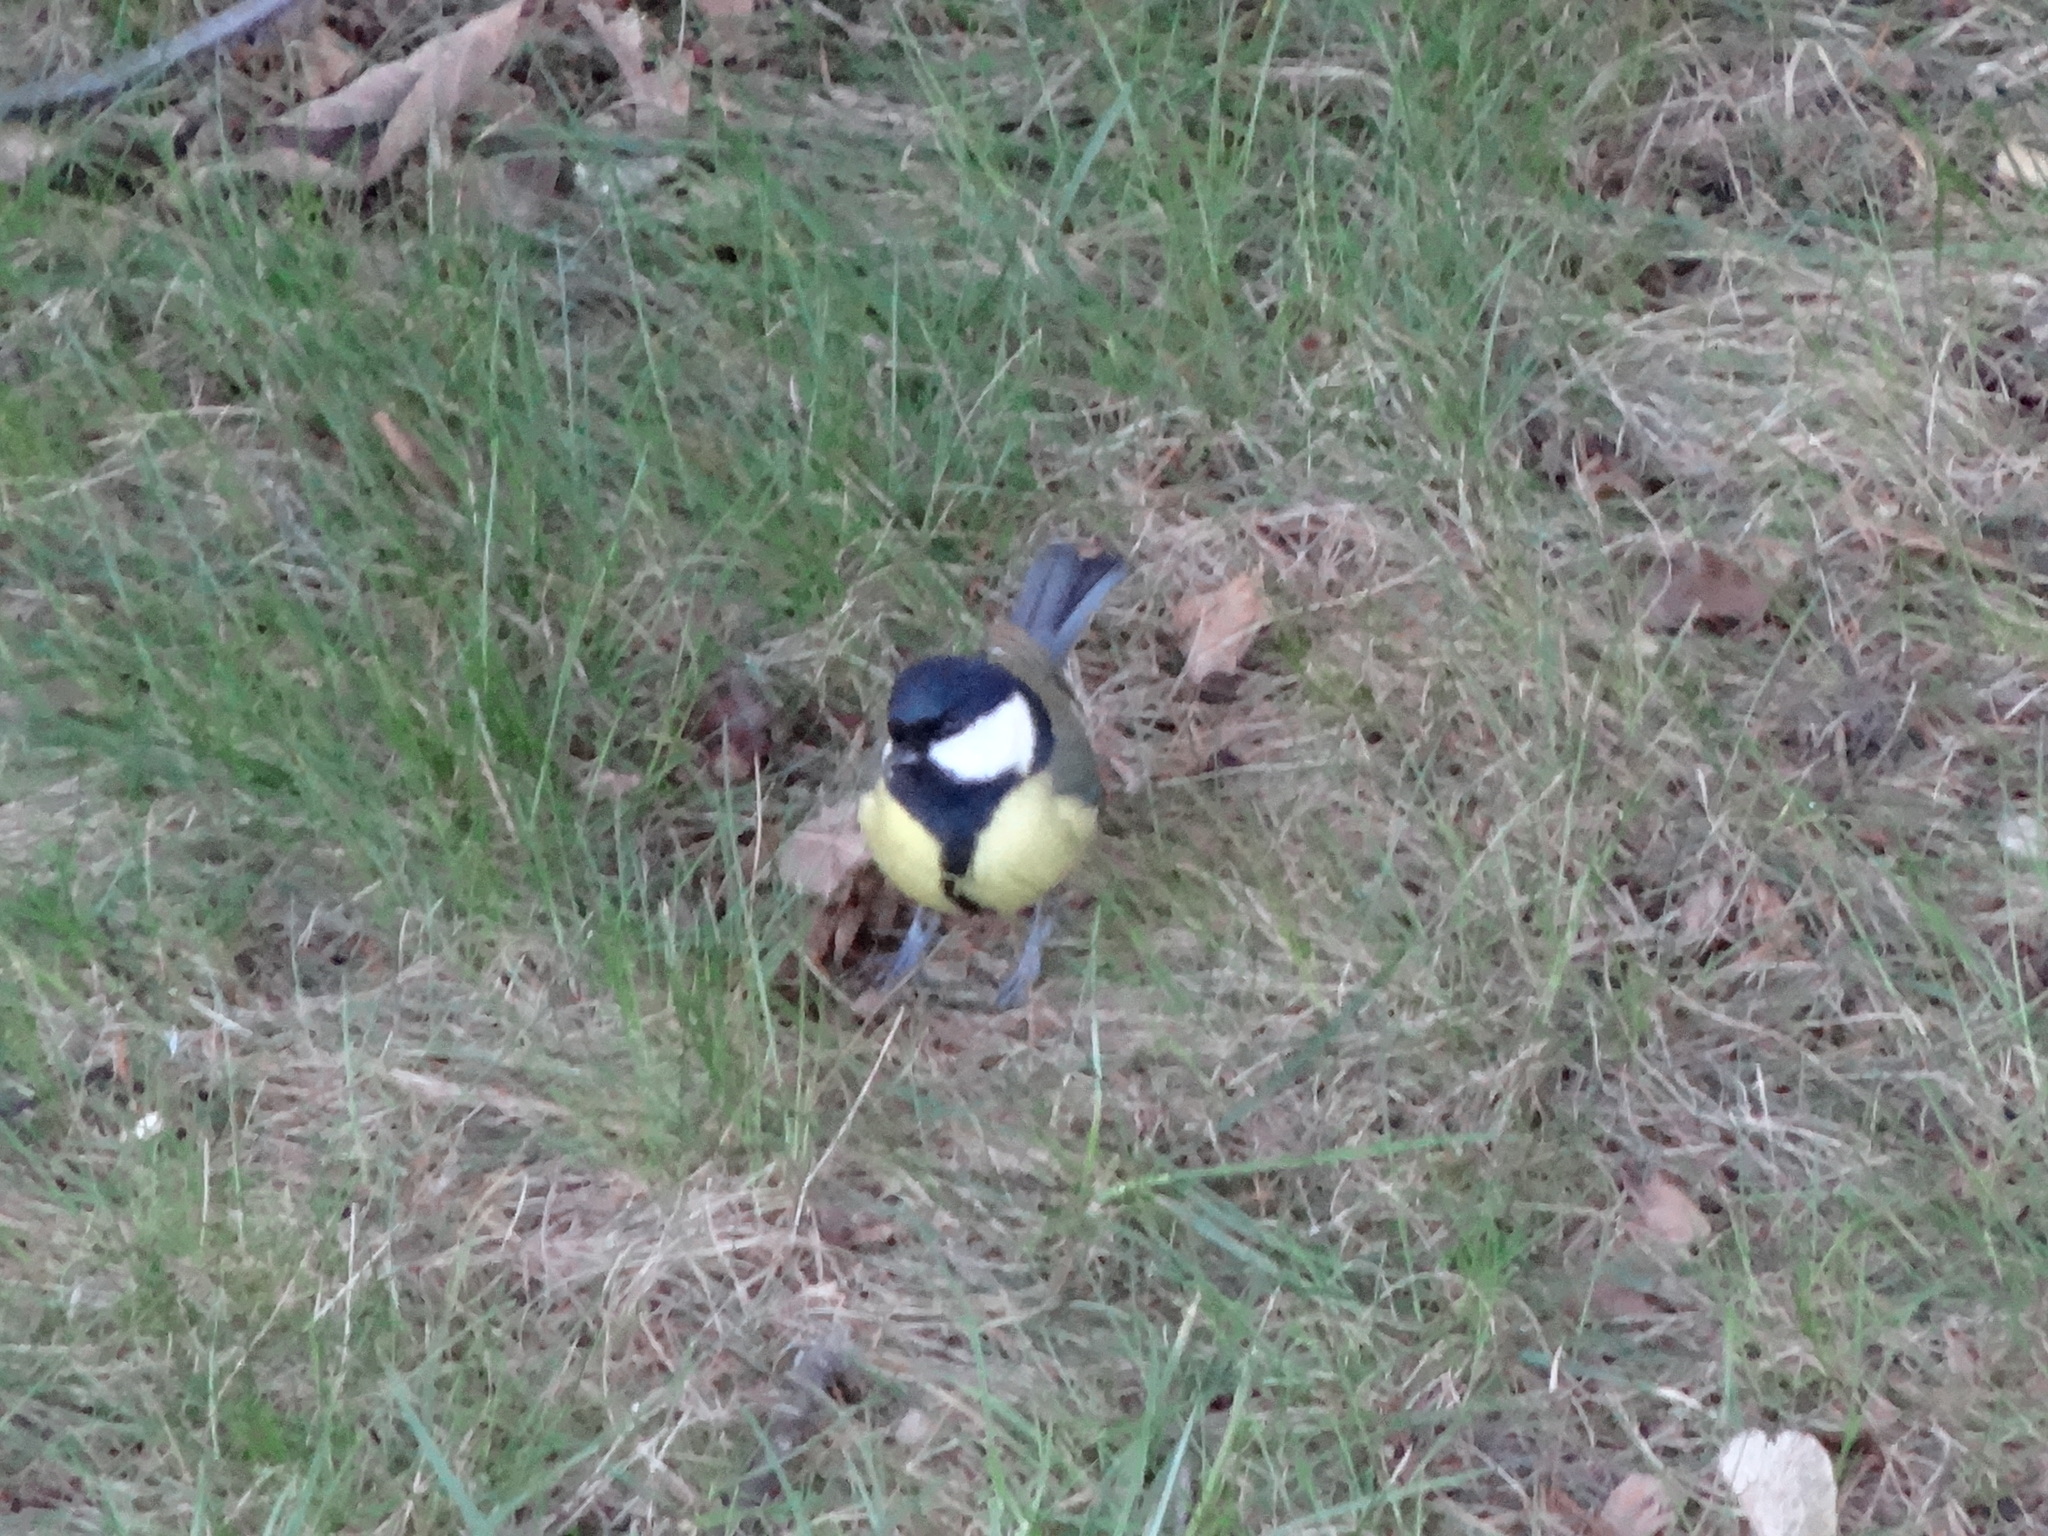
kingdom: Animalia
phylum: Chordata
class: Aves
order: Passeriformes
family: Paridae
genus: Parus
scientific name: Parus major
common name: Great tit
